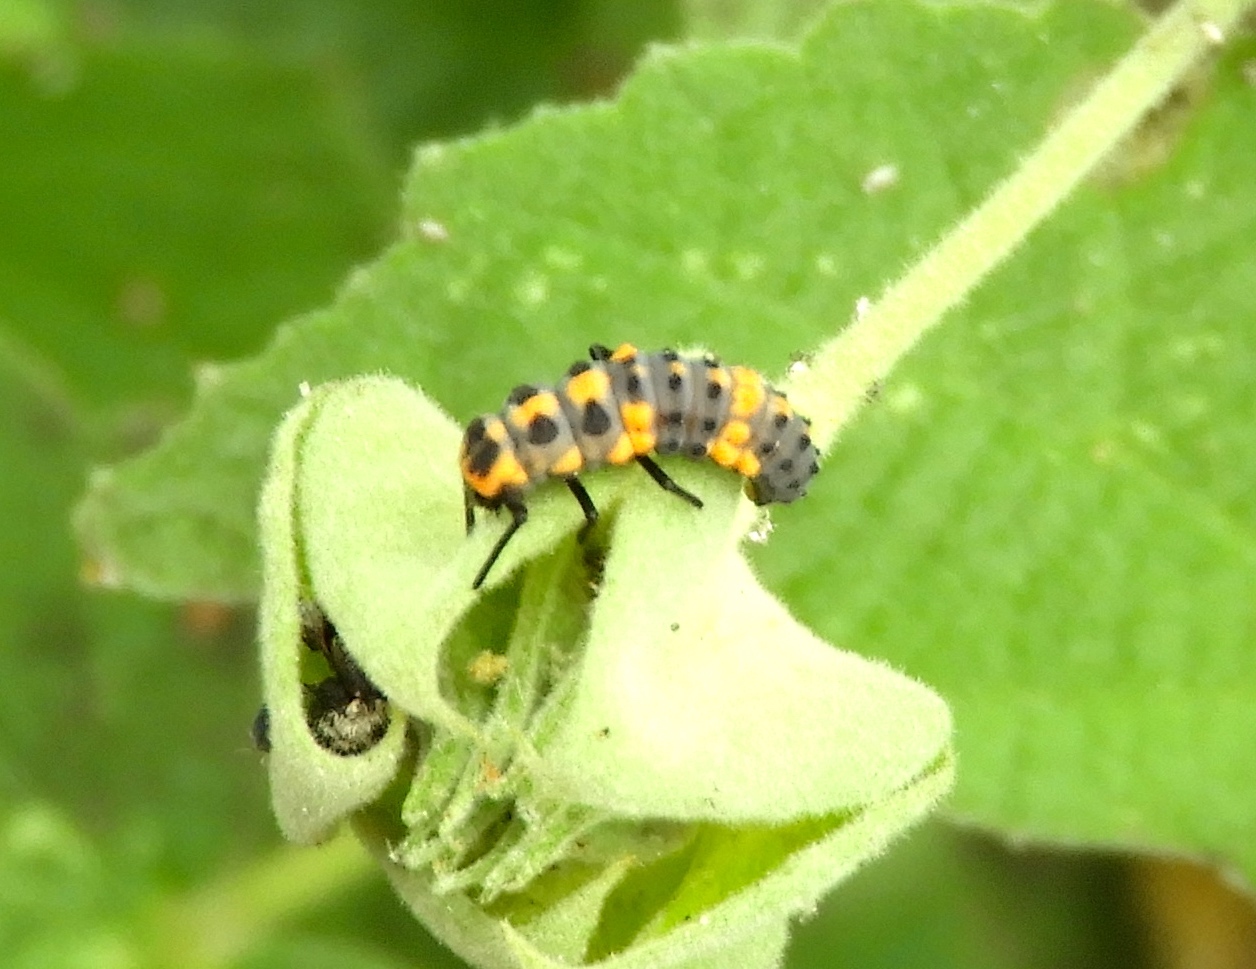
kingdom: Animalia
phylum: Arthropoda
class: Insecta
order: Coleoptera
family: Coccinellidae
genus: Cycloneda
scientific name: Cycloneda sanguinea
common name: Ladybird beetle
